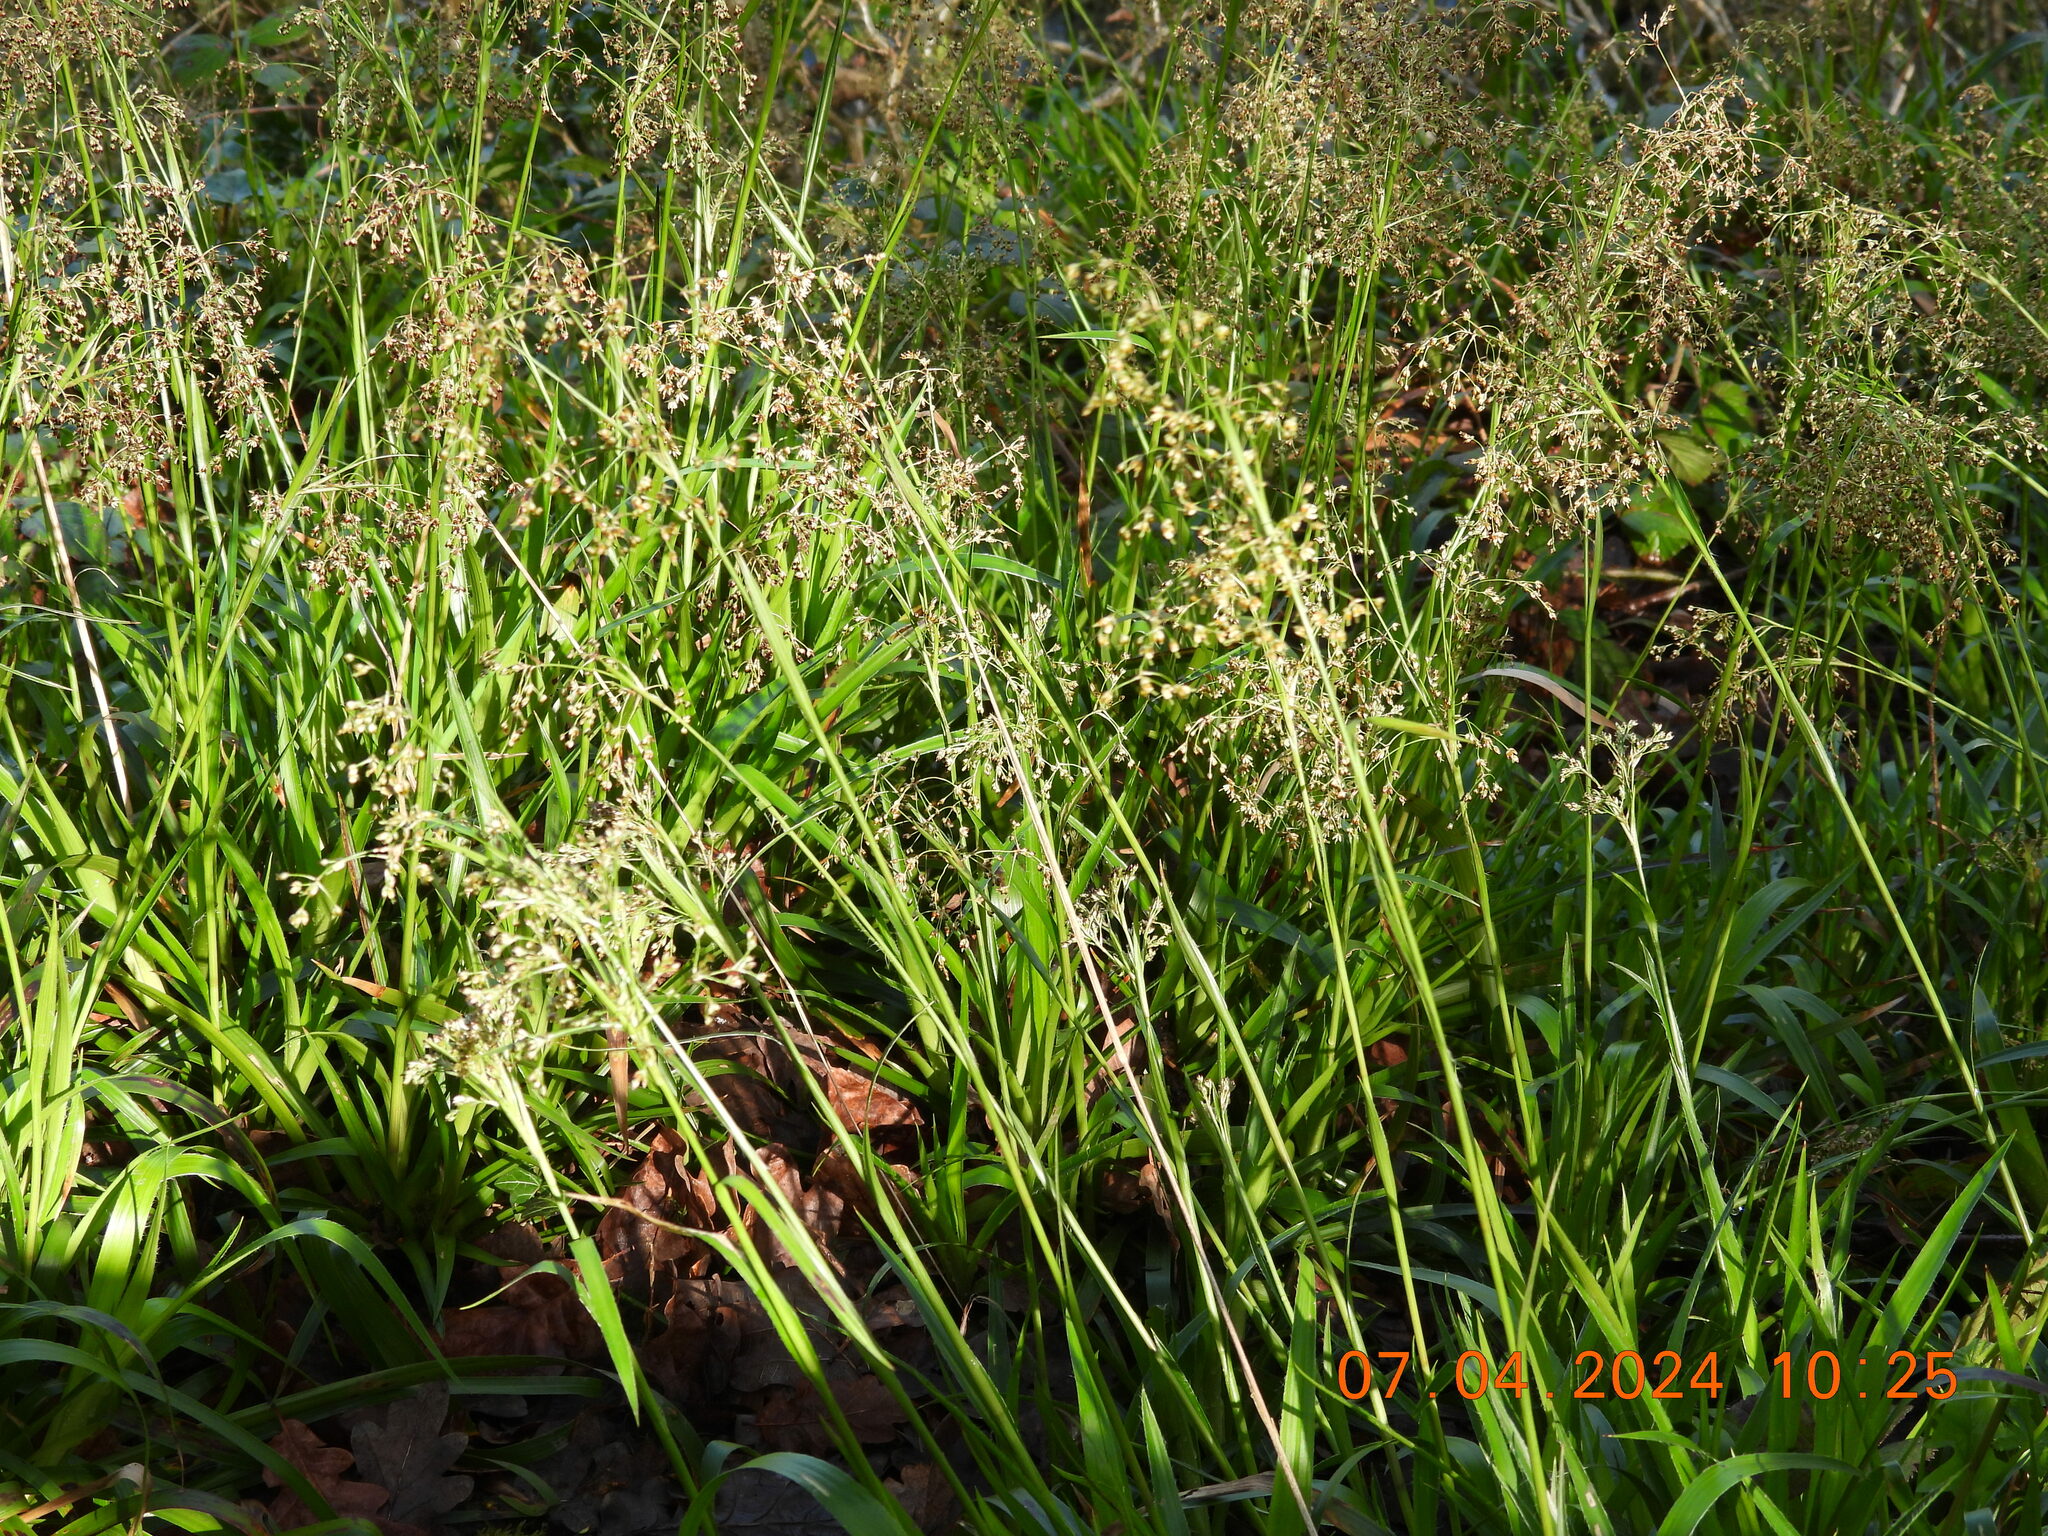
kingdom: Plantae
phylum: Tracheophyta
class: Liliopsida
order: Poales
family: Juncaceae
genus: Luzula
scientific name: Luzula sylvatica
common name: Great wood-rush
